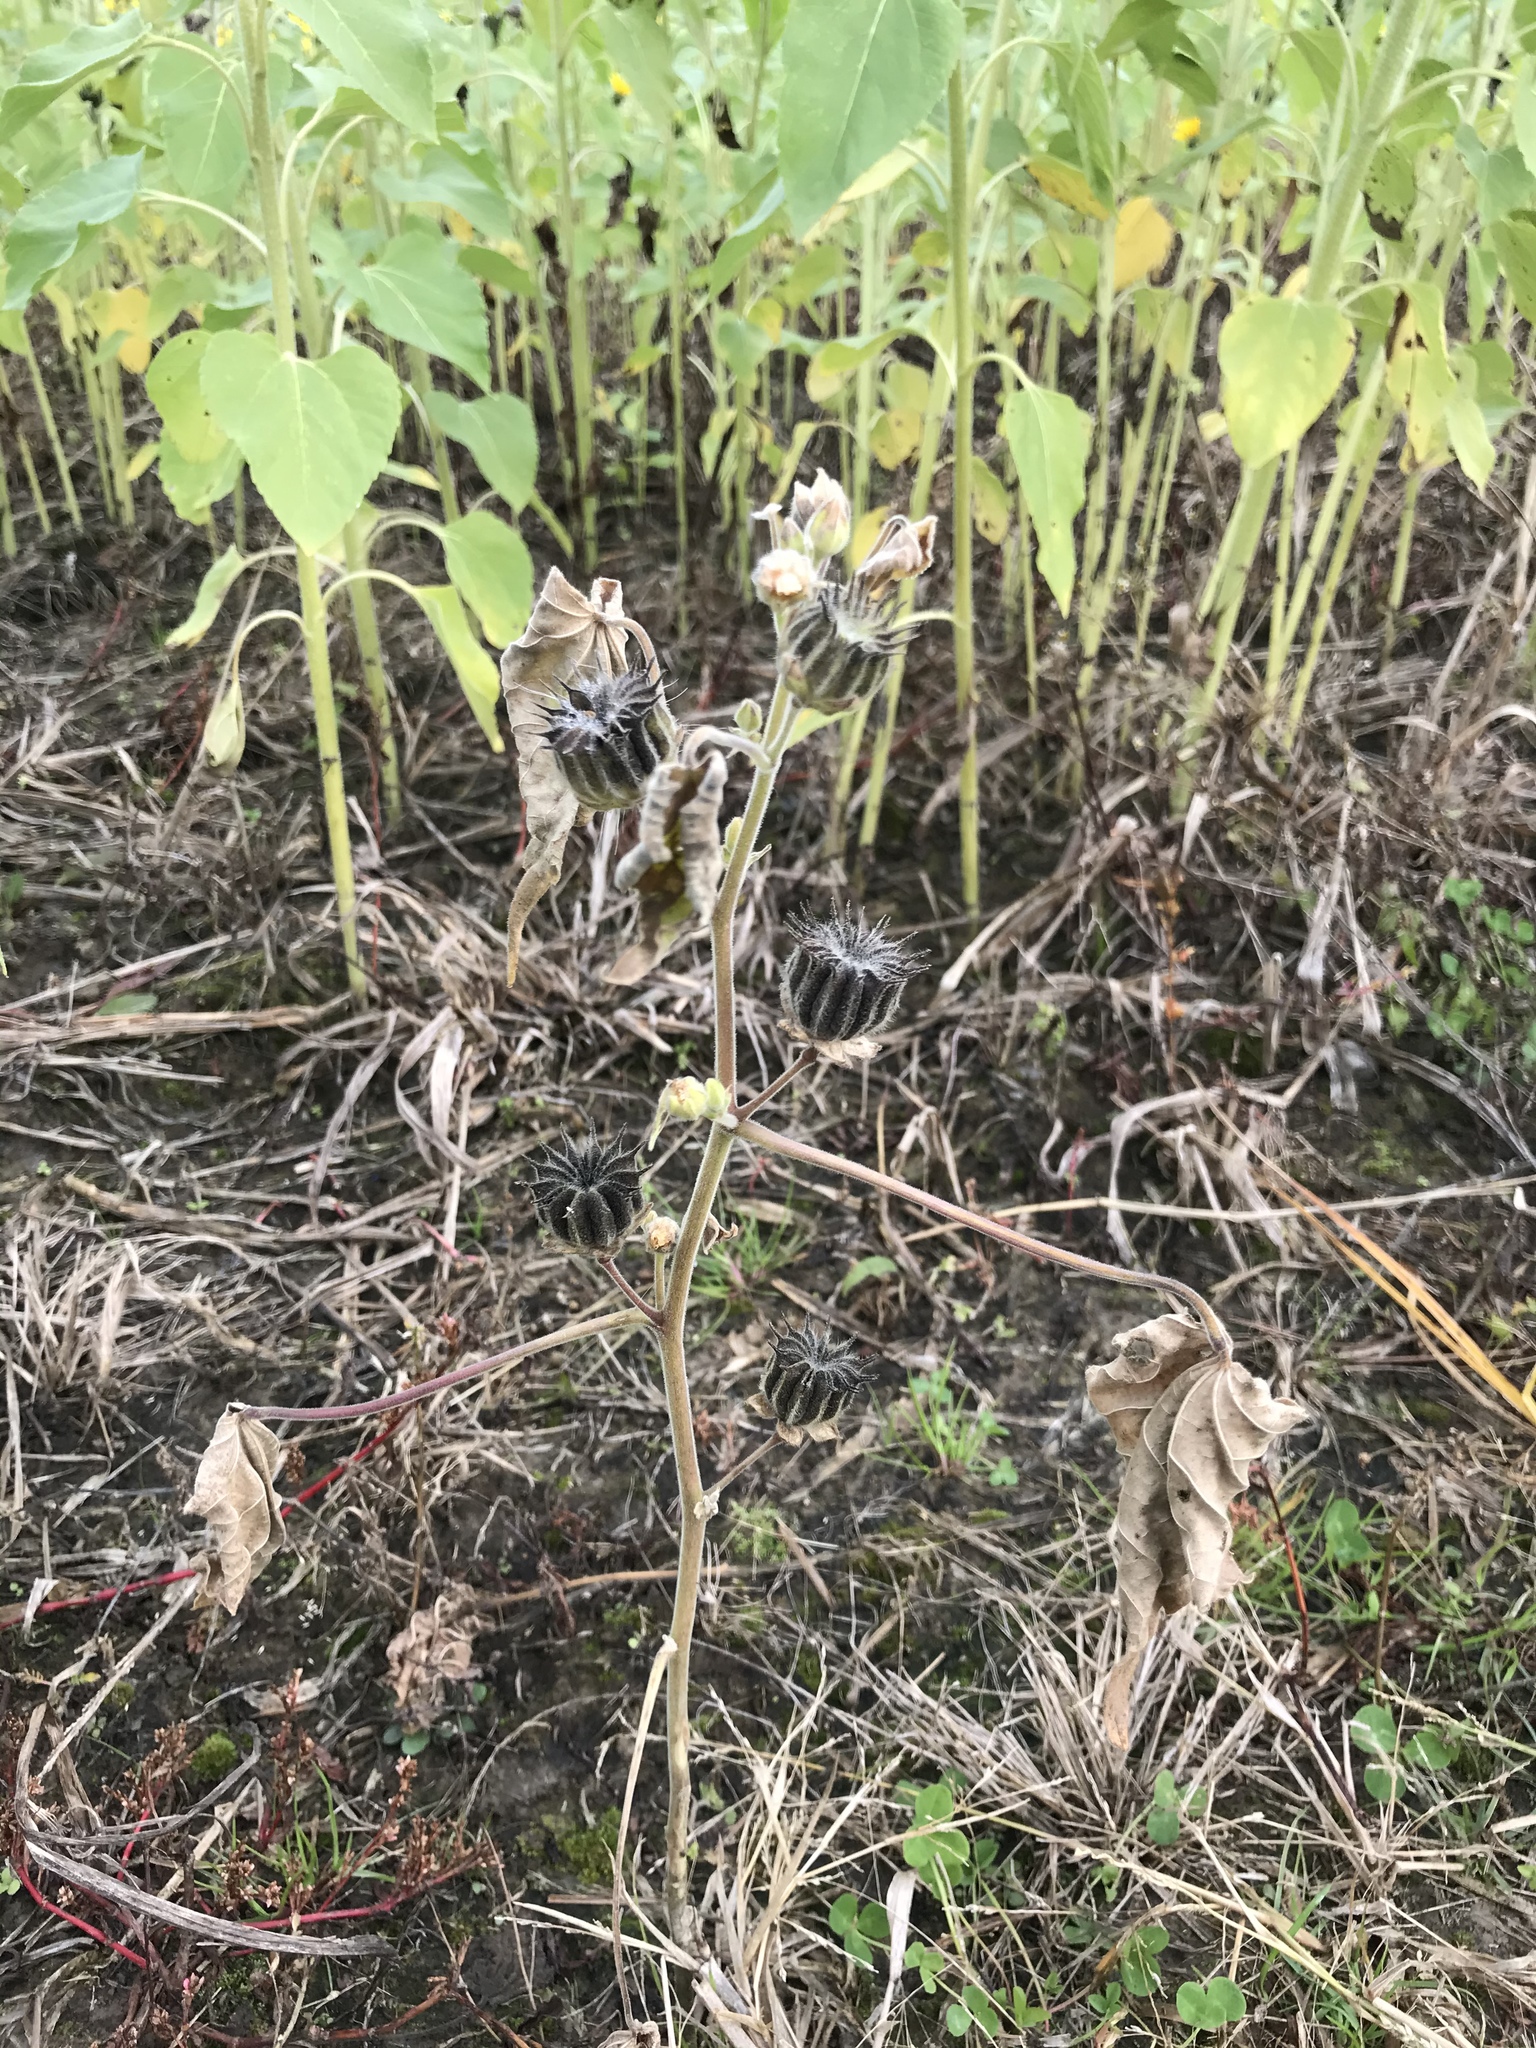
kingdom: Plantae
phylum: Tracheophyta
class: Magnoliopsida
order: Malvales
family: Malvaceae
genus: Abutilon
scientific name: Abutilon theophrasti
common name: Velvetleaf
